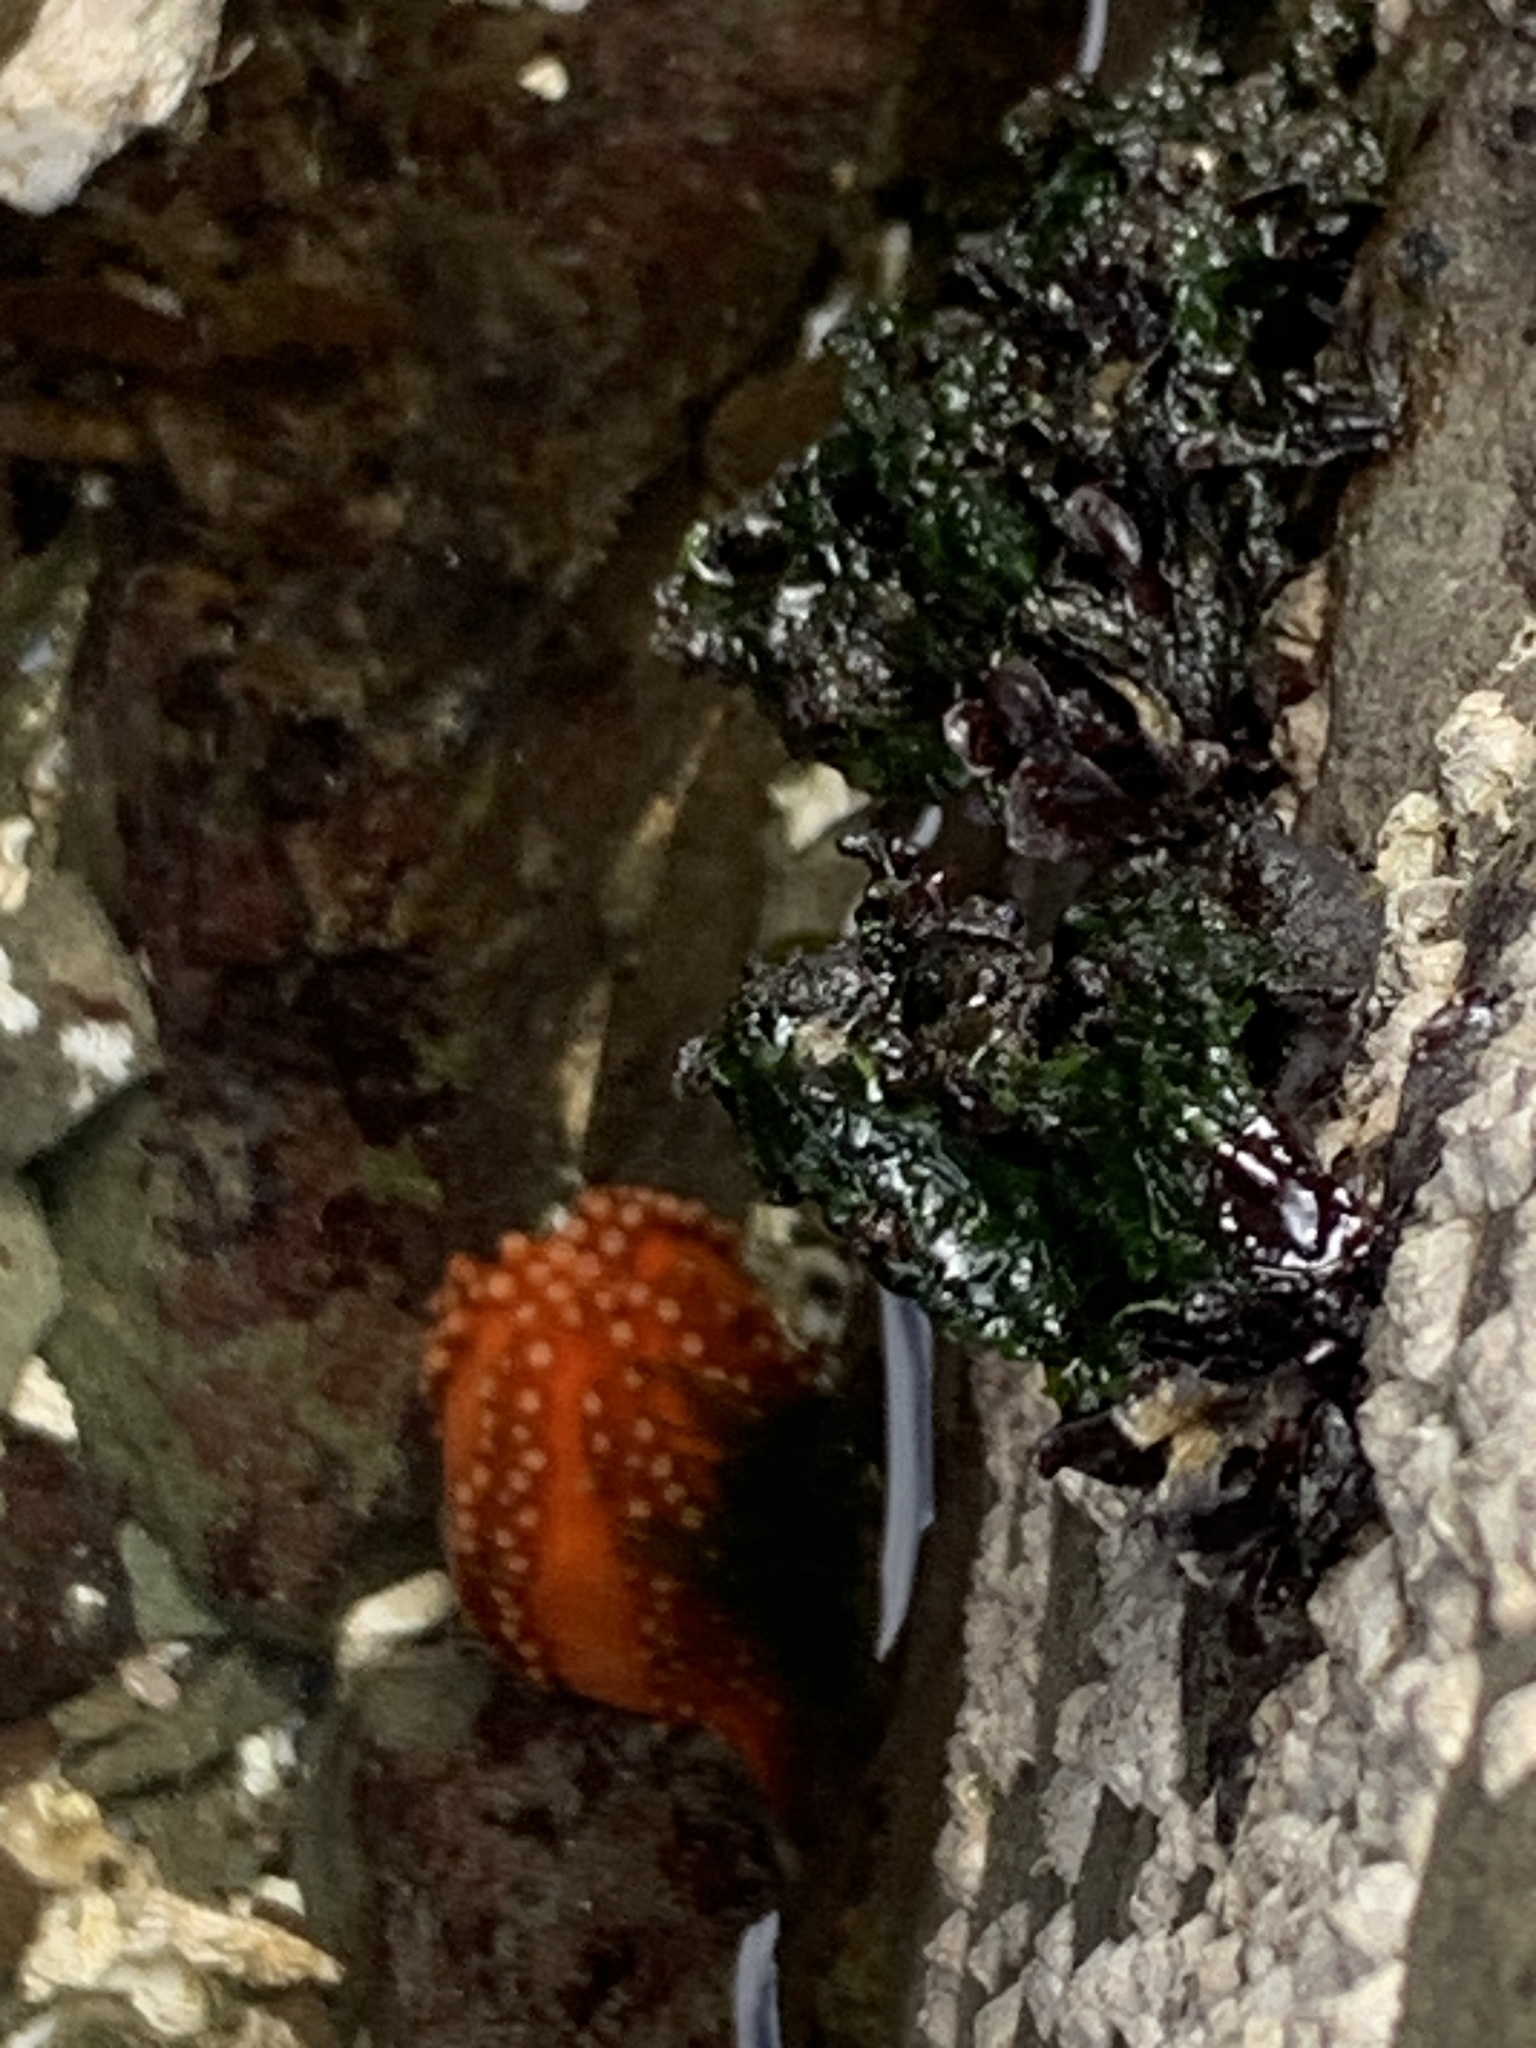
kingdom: Animalia
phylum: Echinodermata
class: Holothuroidea
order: Dendrochirotida
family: Cucumariidae
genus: Cucumaria
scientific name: Cucumaria miniata
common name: Orange sea cucumber
